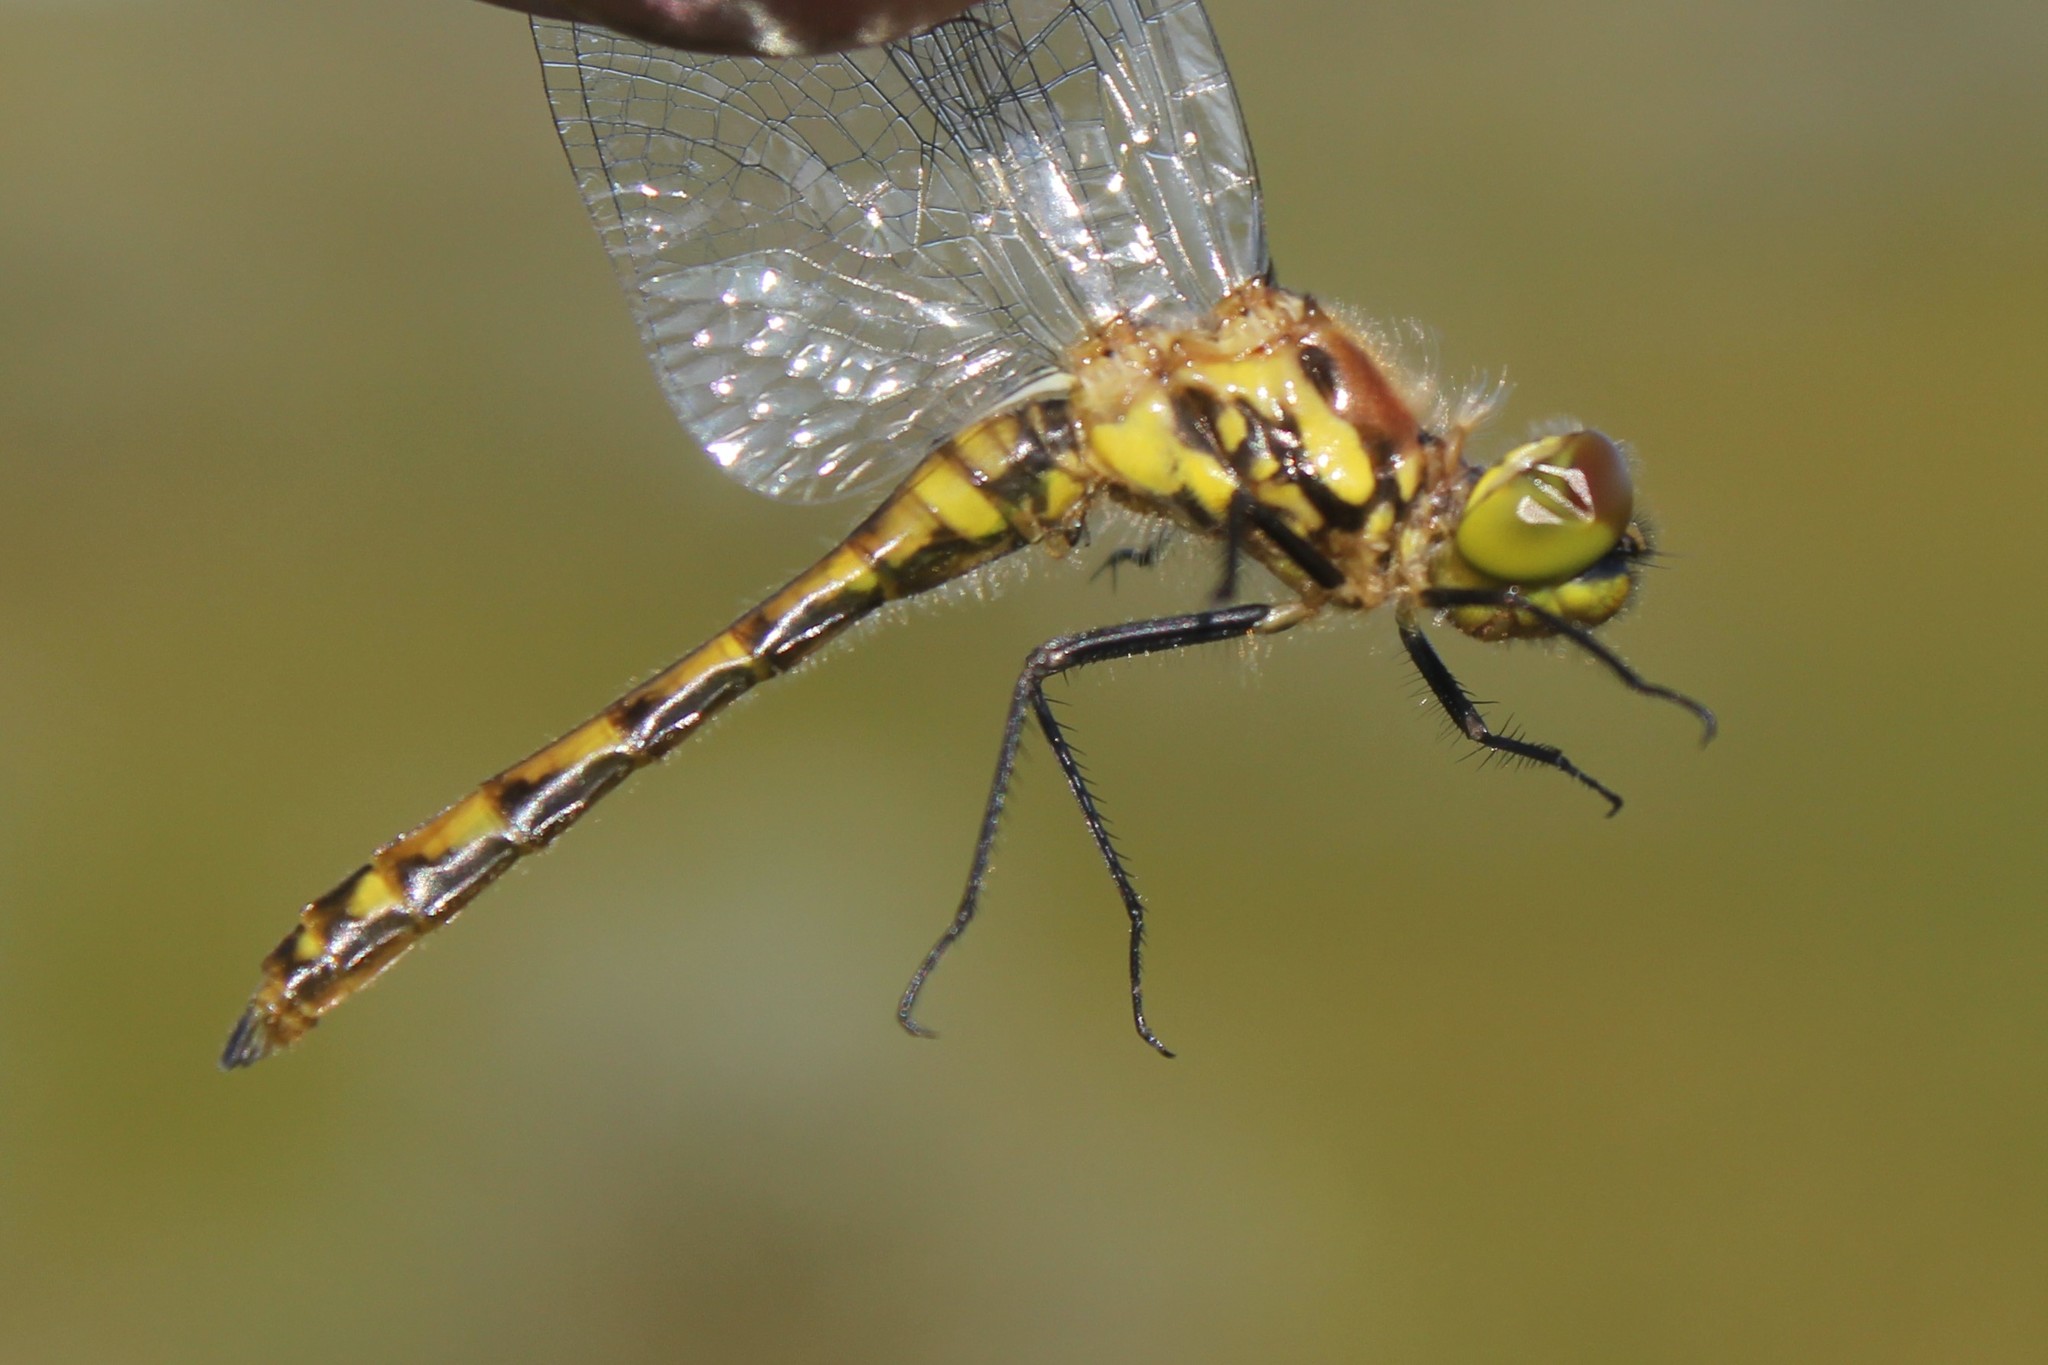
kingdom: Animalia
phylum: Arthropoda
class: Insecta
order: Odonata
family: Libellulidae
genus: Sympetrum
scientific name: Sympetrum danae
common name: Black darter
